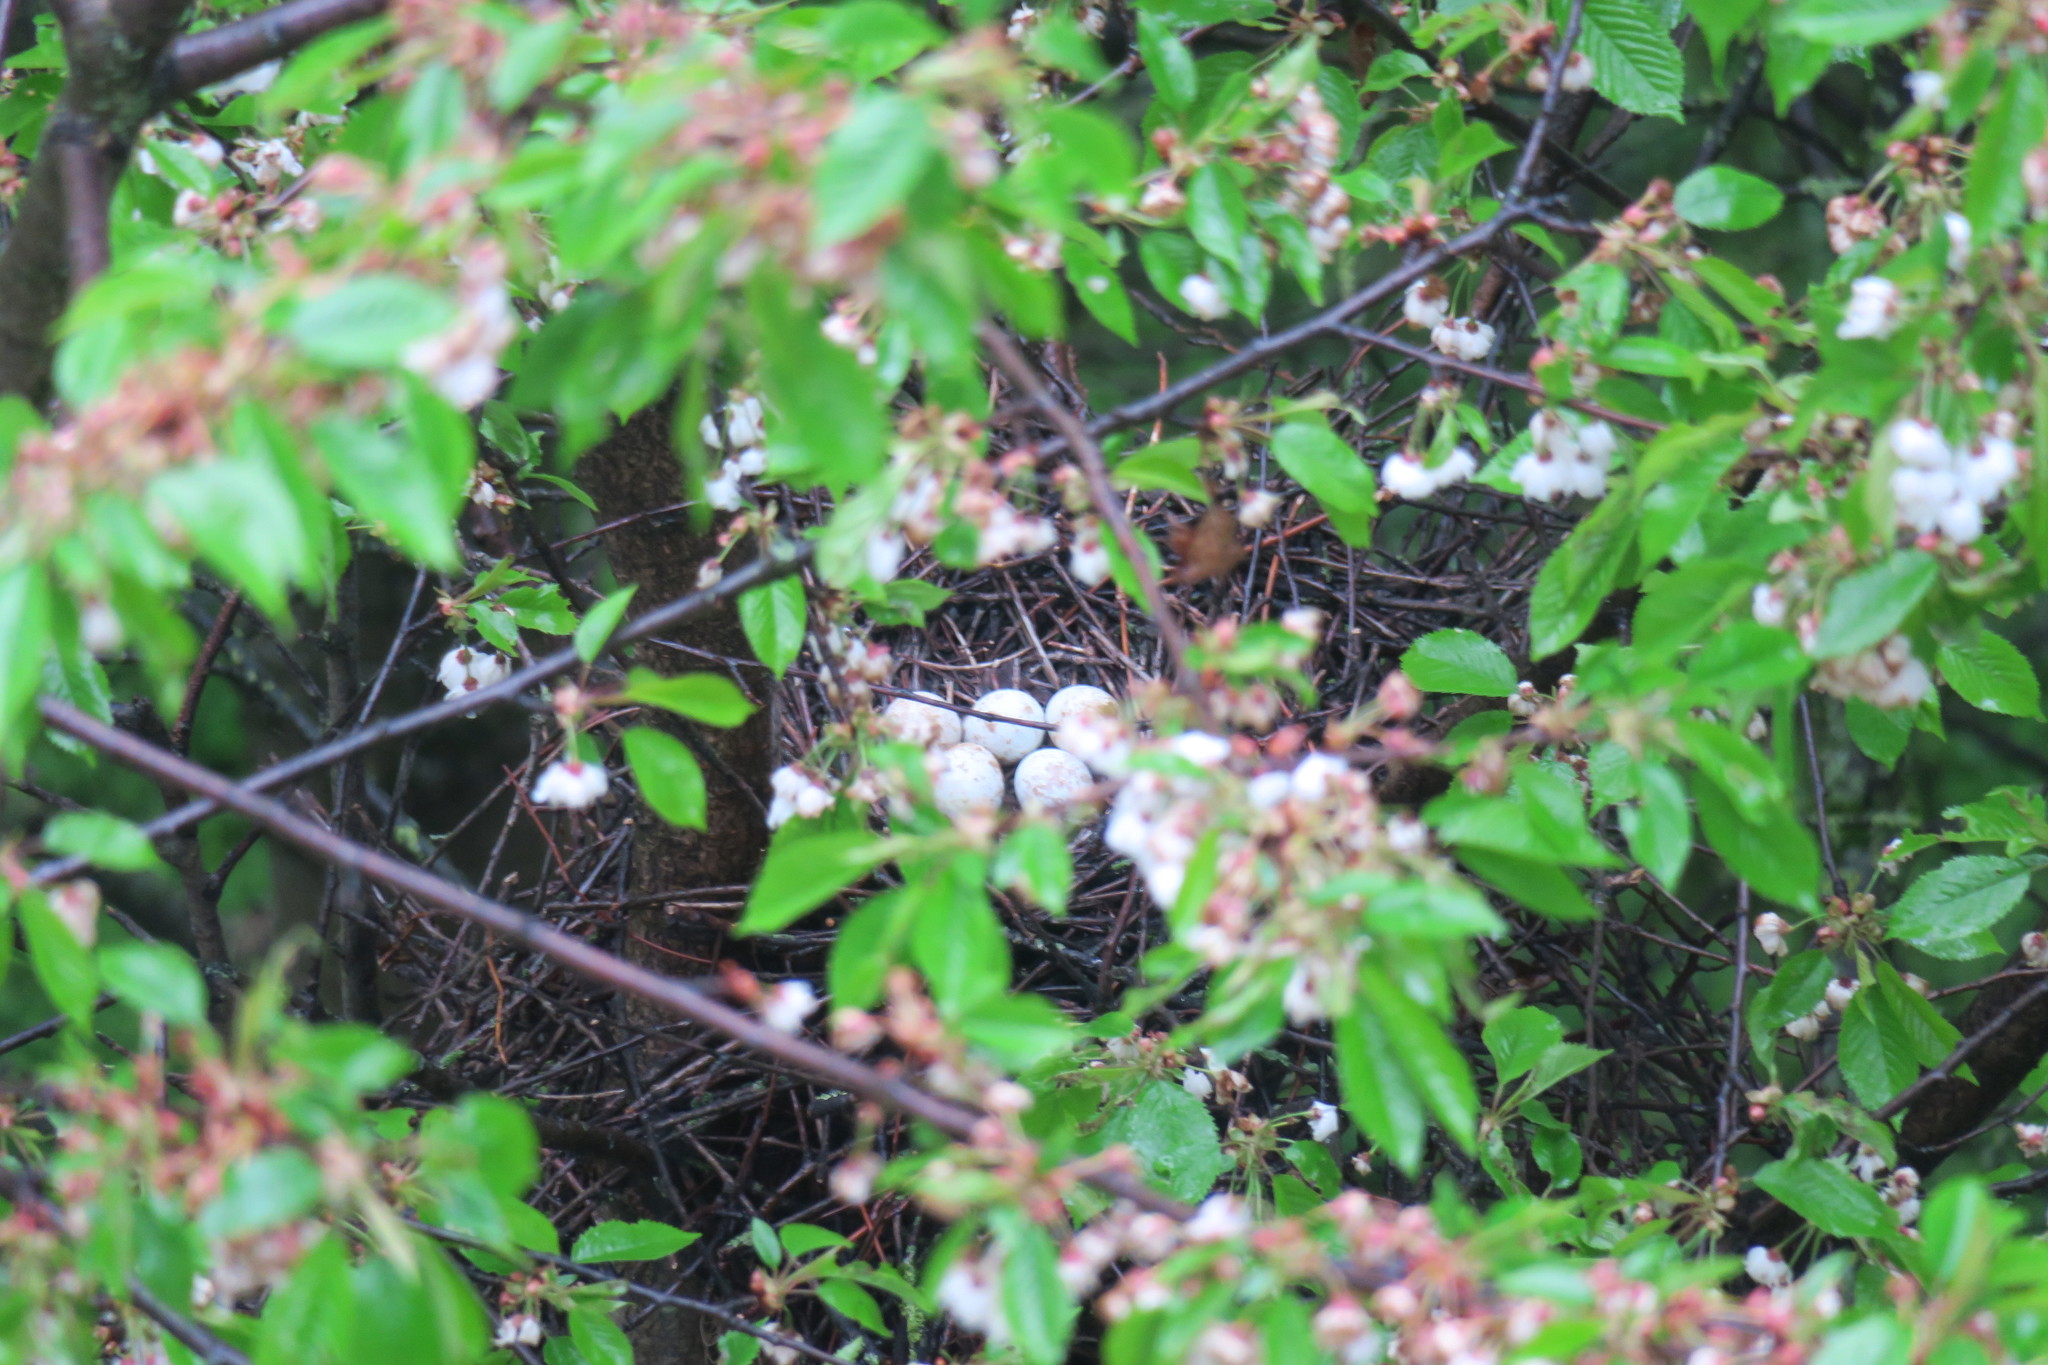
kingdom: Animalia
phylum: Chordata
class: Aves
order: Accipitriformes
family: Accipitridae
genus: Accipiter
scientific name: Accipiter nisus
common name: Eurasian sparrowhawk
